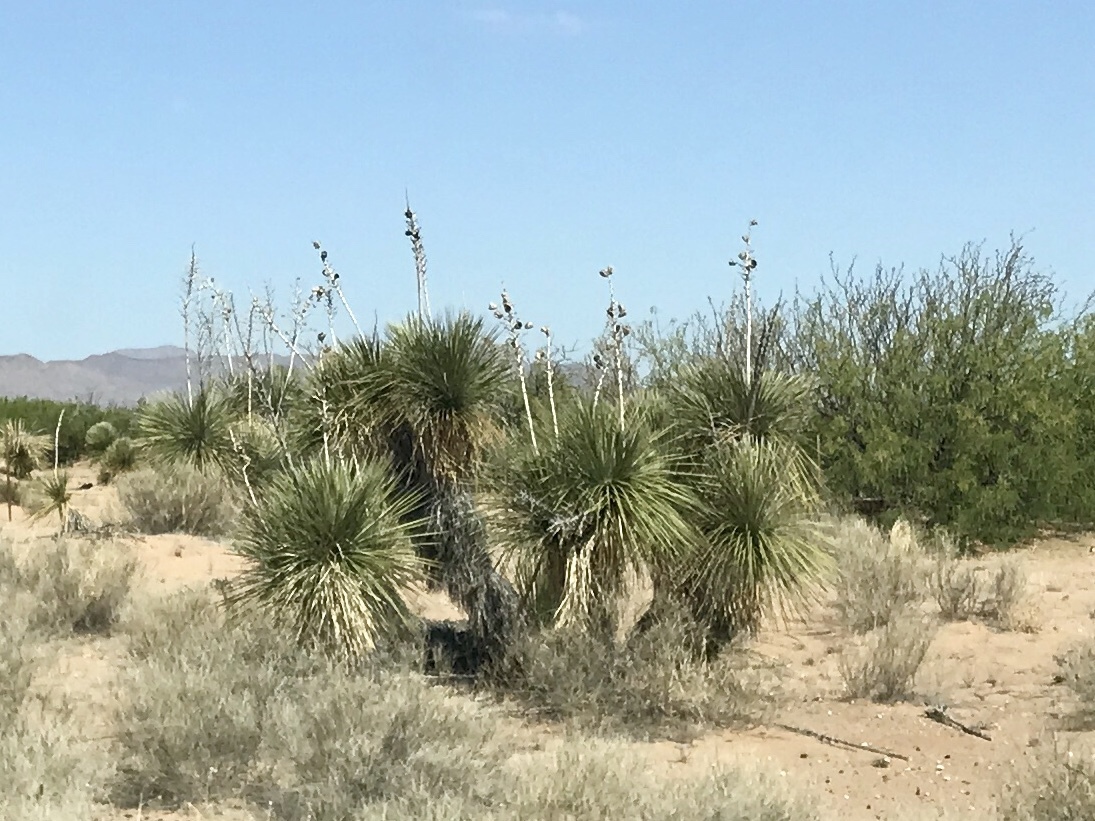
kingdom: Plantae
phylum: Tracheophyta
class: Liliopsida
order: Asparagales
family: Asparagaceae
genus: Yucca
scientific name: Yucca elata
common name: Palmella
